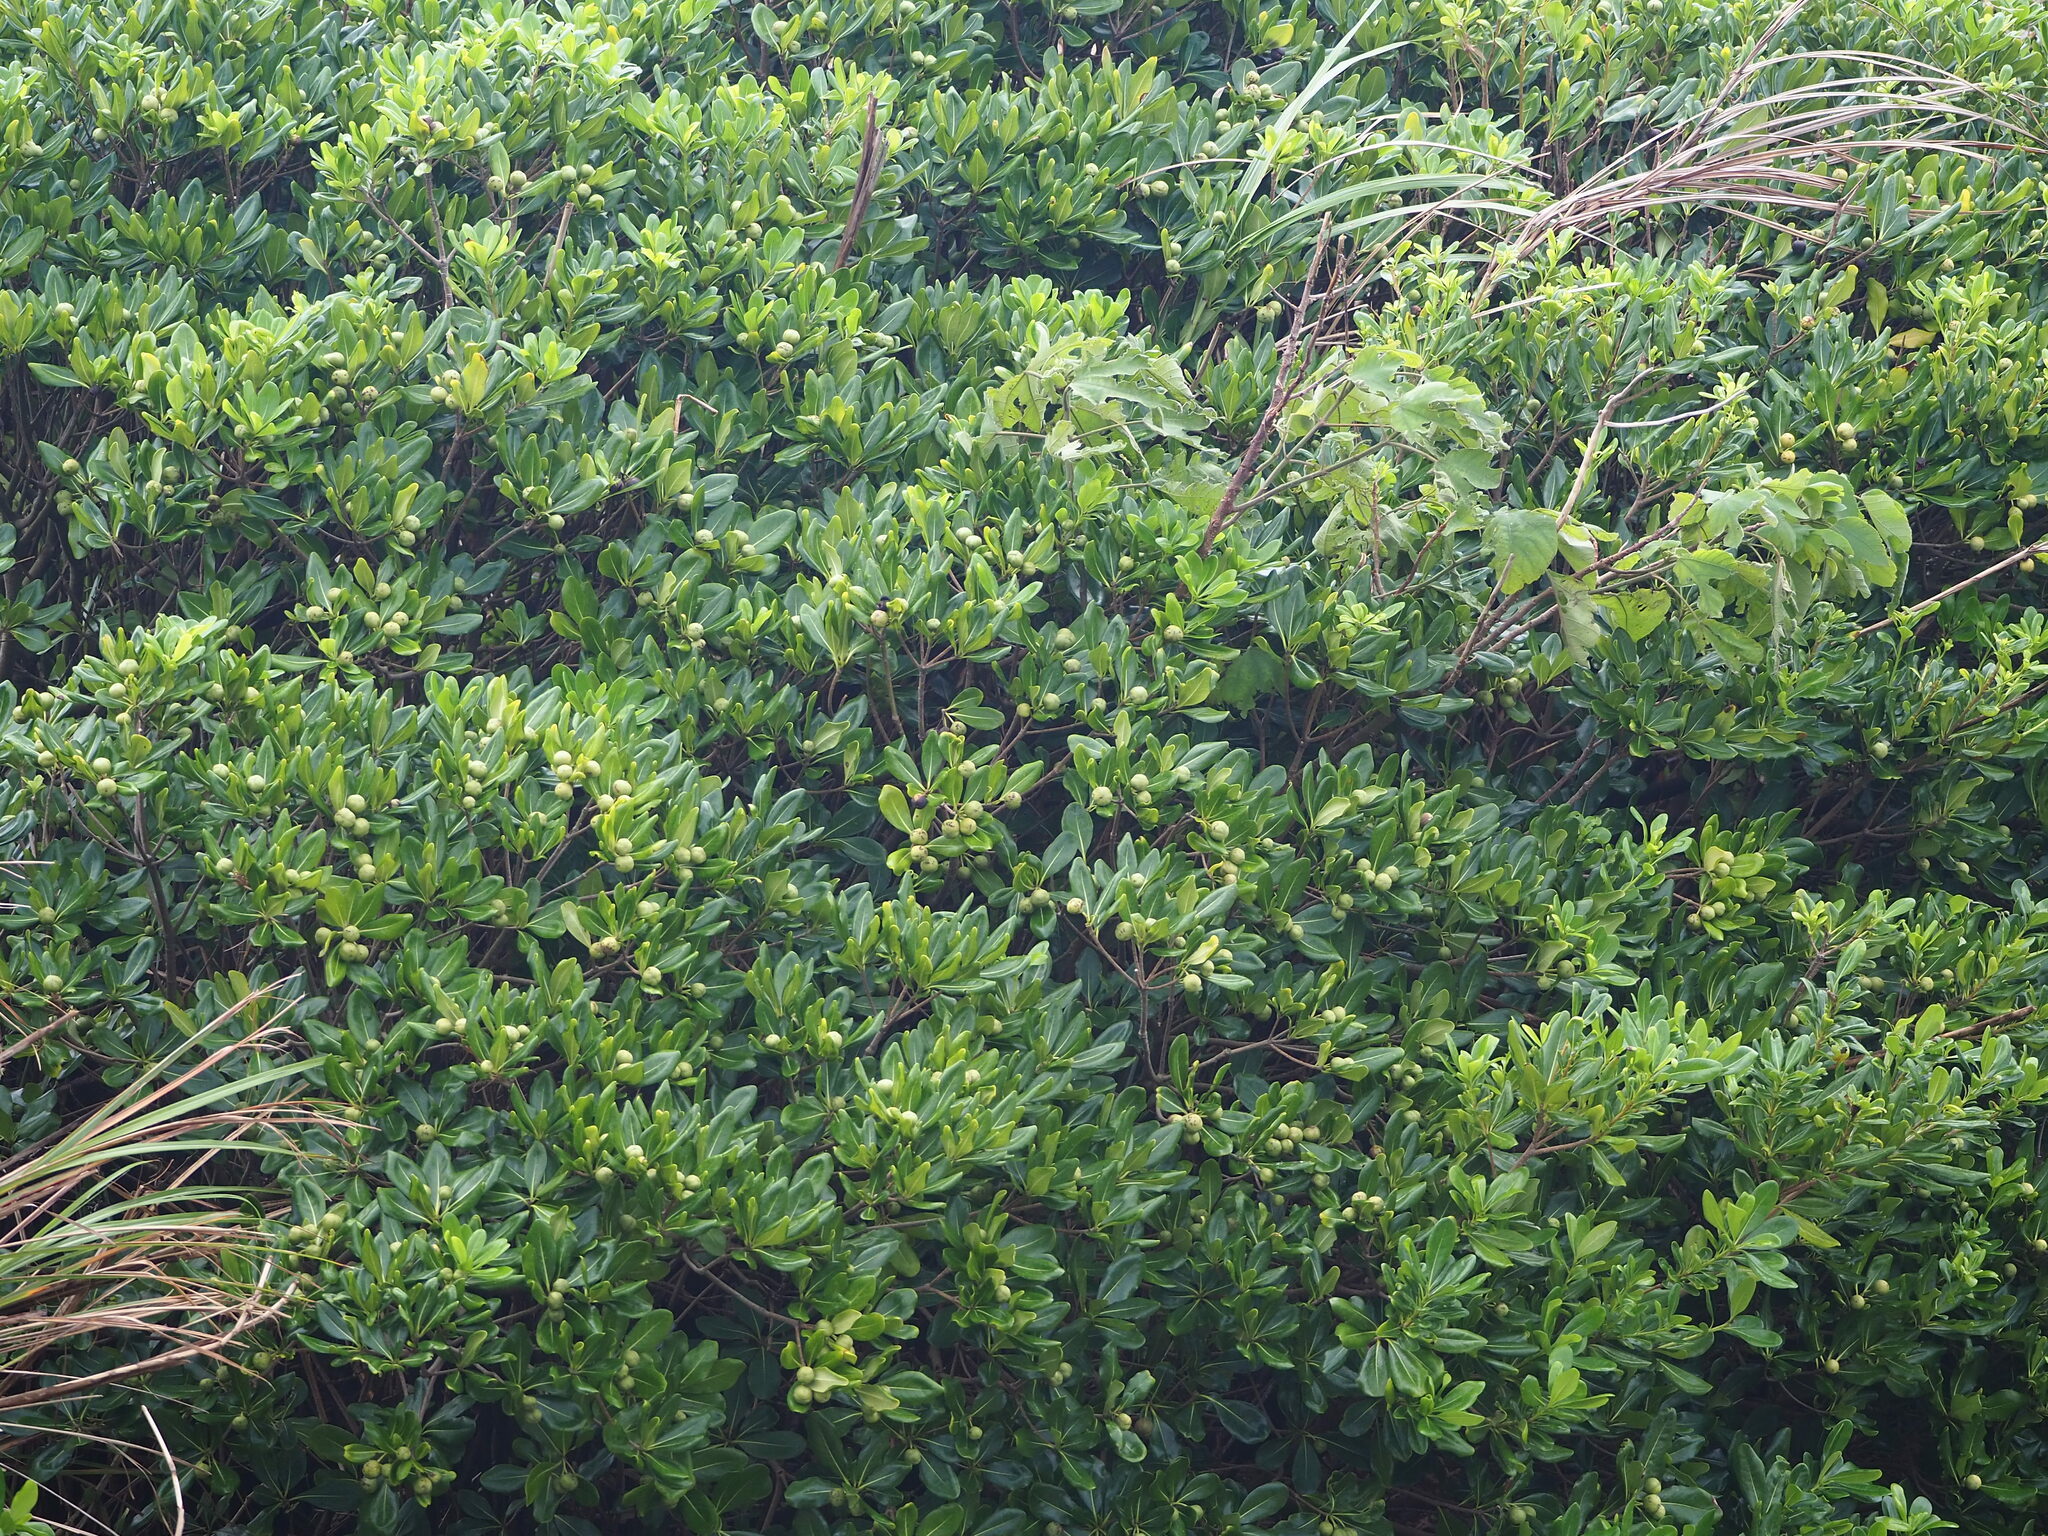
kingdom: Plantae
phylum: Tracheophyta
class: Magnoliopsida
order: Apiales
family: Pittosporaceae
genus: Pittosporum
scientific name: Pittosporum tobira
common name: Japanese cheesewood
